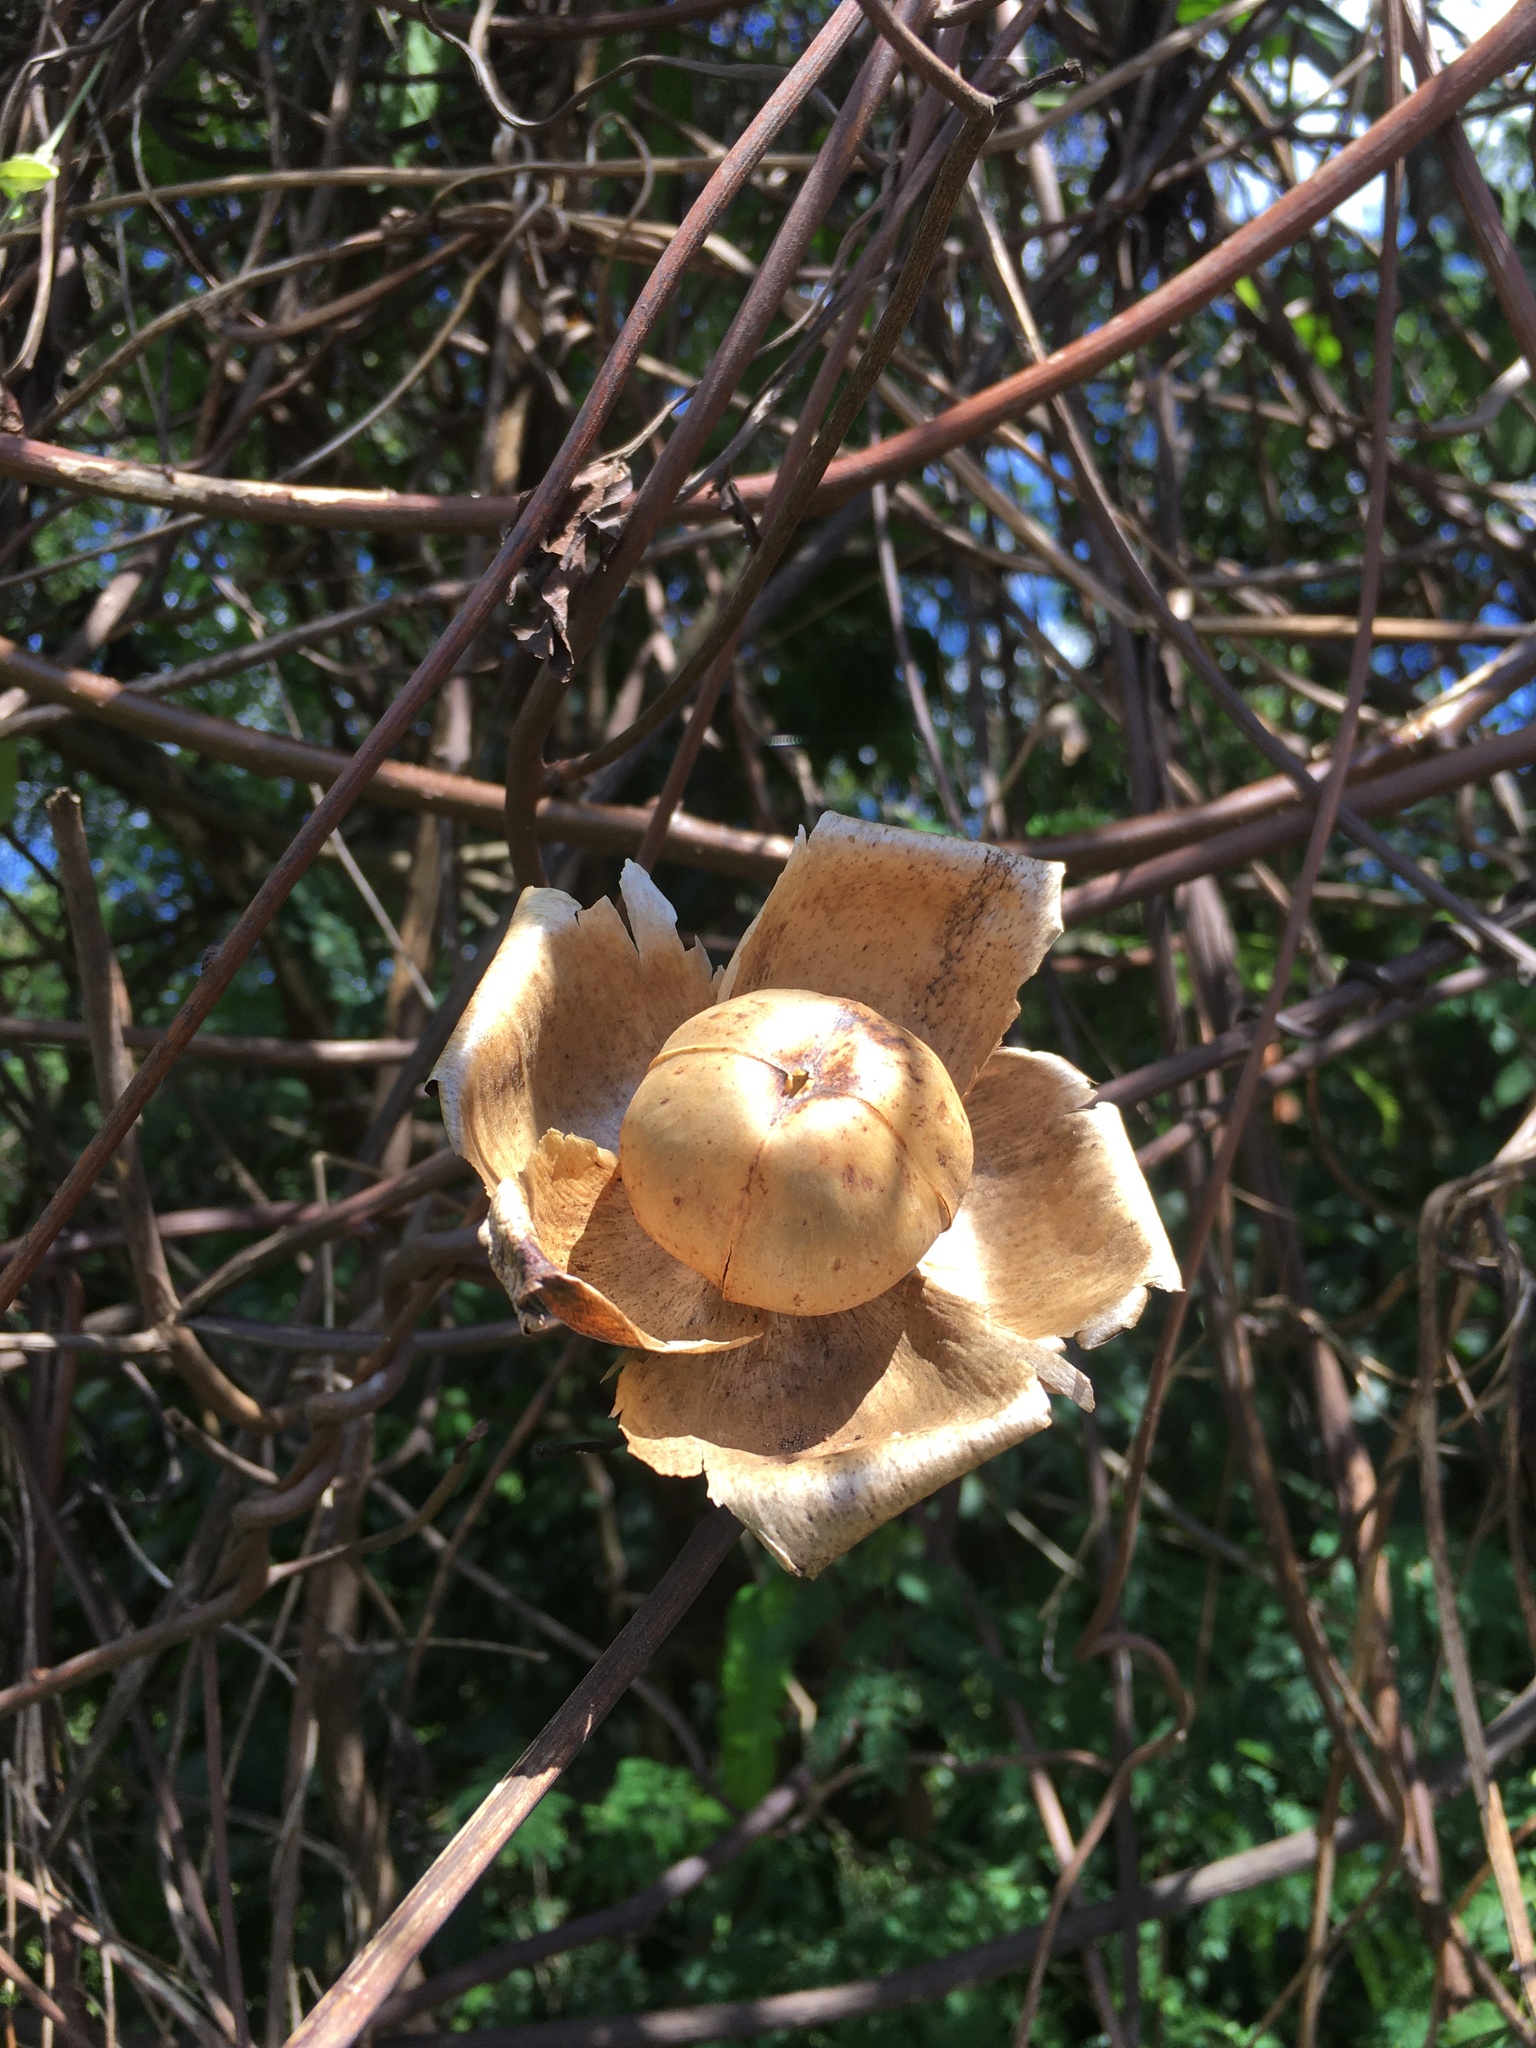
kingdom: Plantae
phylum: Tracheophyta
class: Magnoliopsida
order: Solanales
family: Convolvulaceae
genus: Distimake
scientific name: Distimake tuberosus
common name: Spanish arborvine
